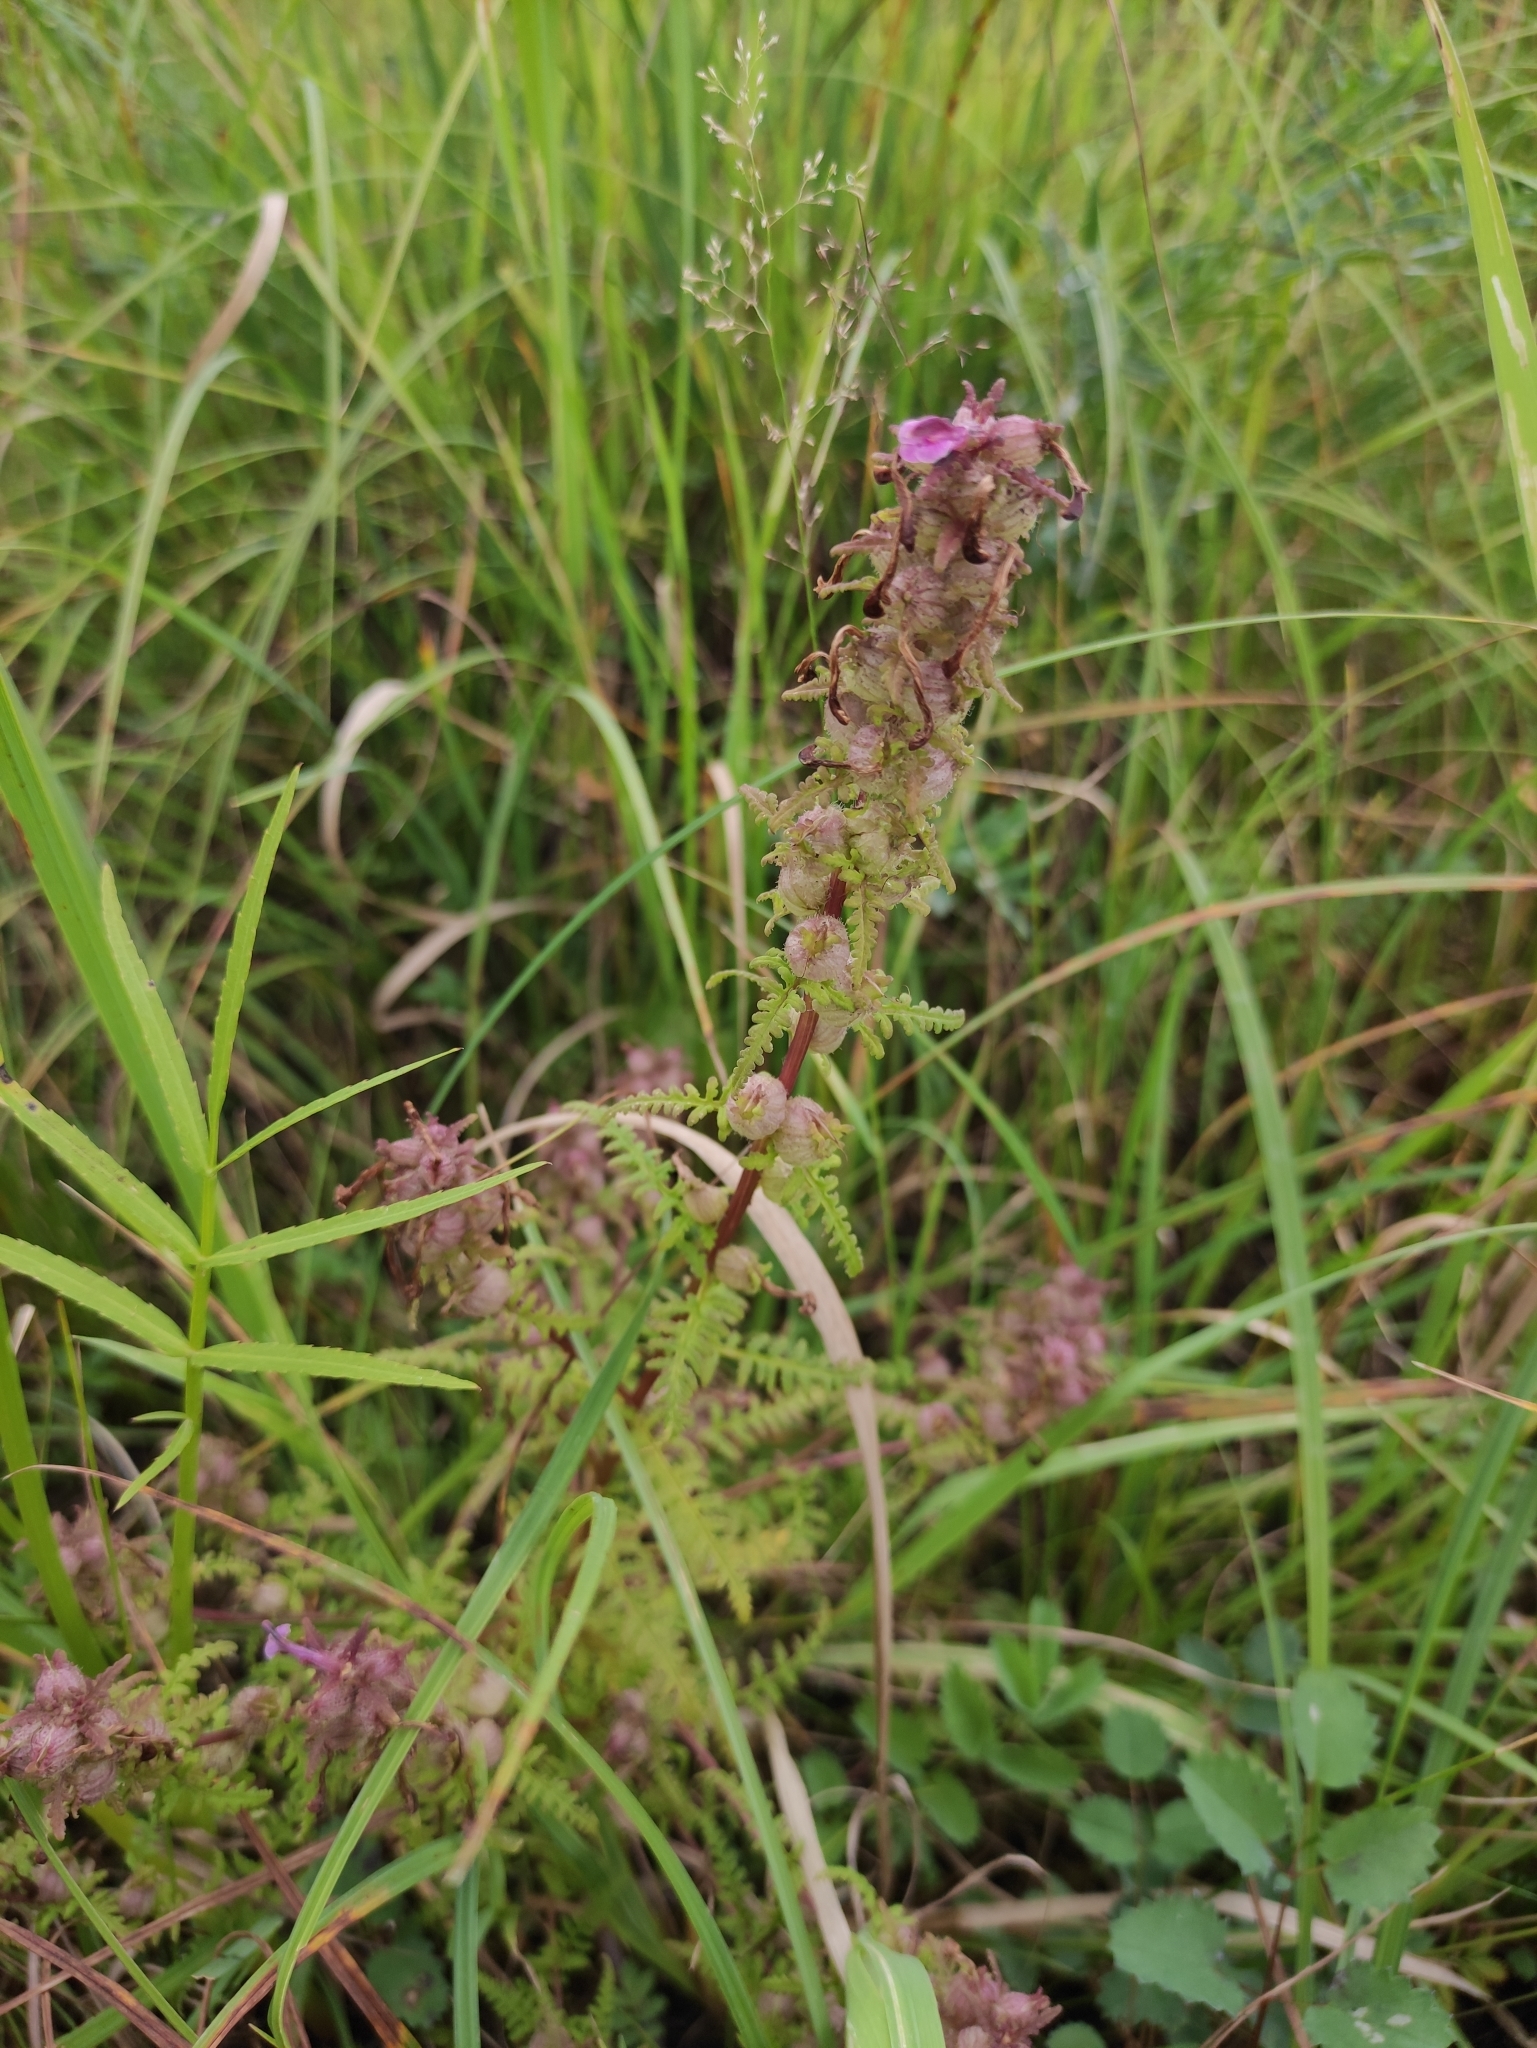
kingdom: Plantae
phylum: Tracheophyta
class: Magnoliopsida
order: Lamiales
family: Orobanchaceae
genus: Pedicularis
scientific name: Pedicularis karoi
